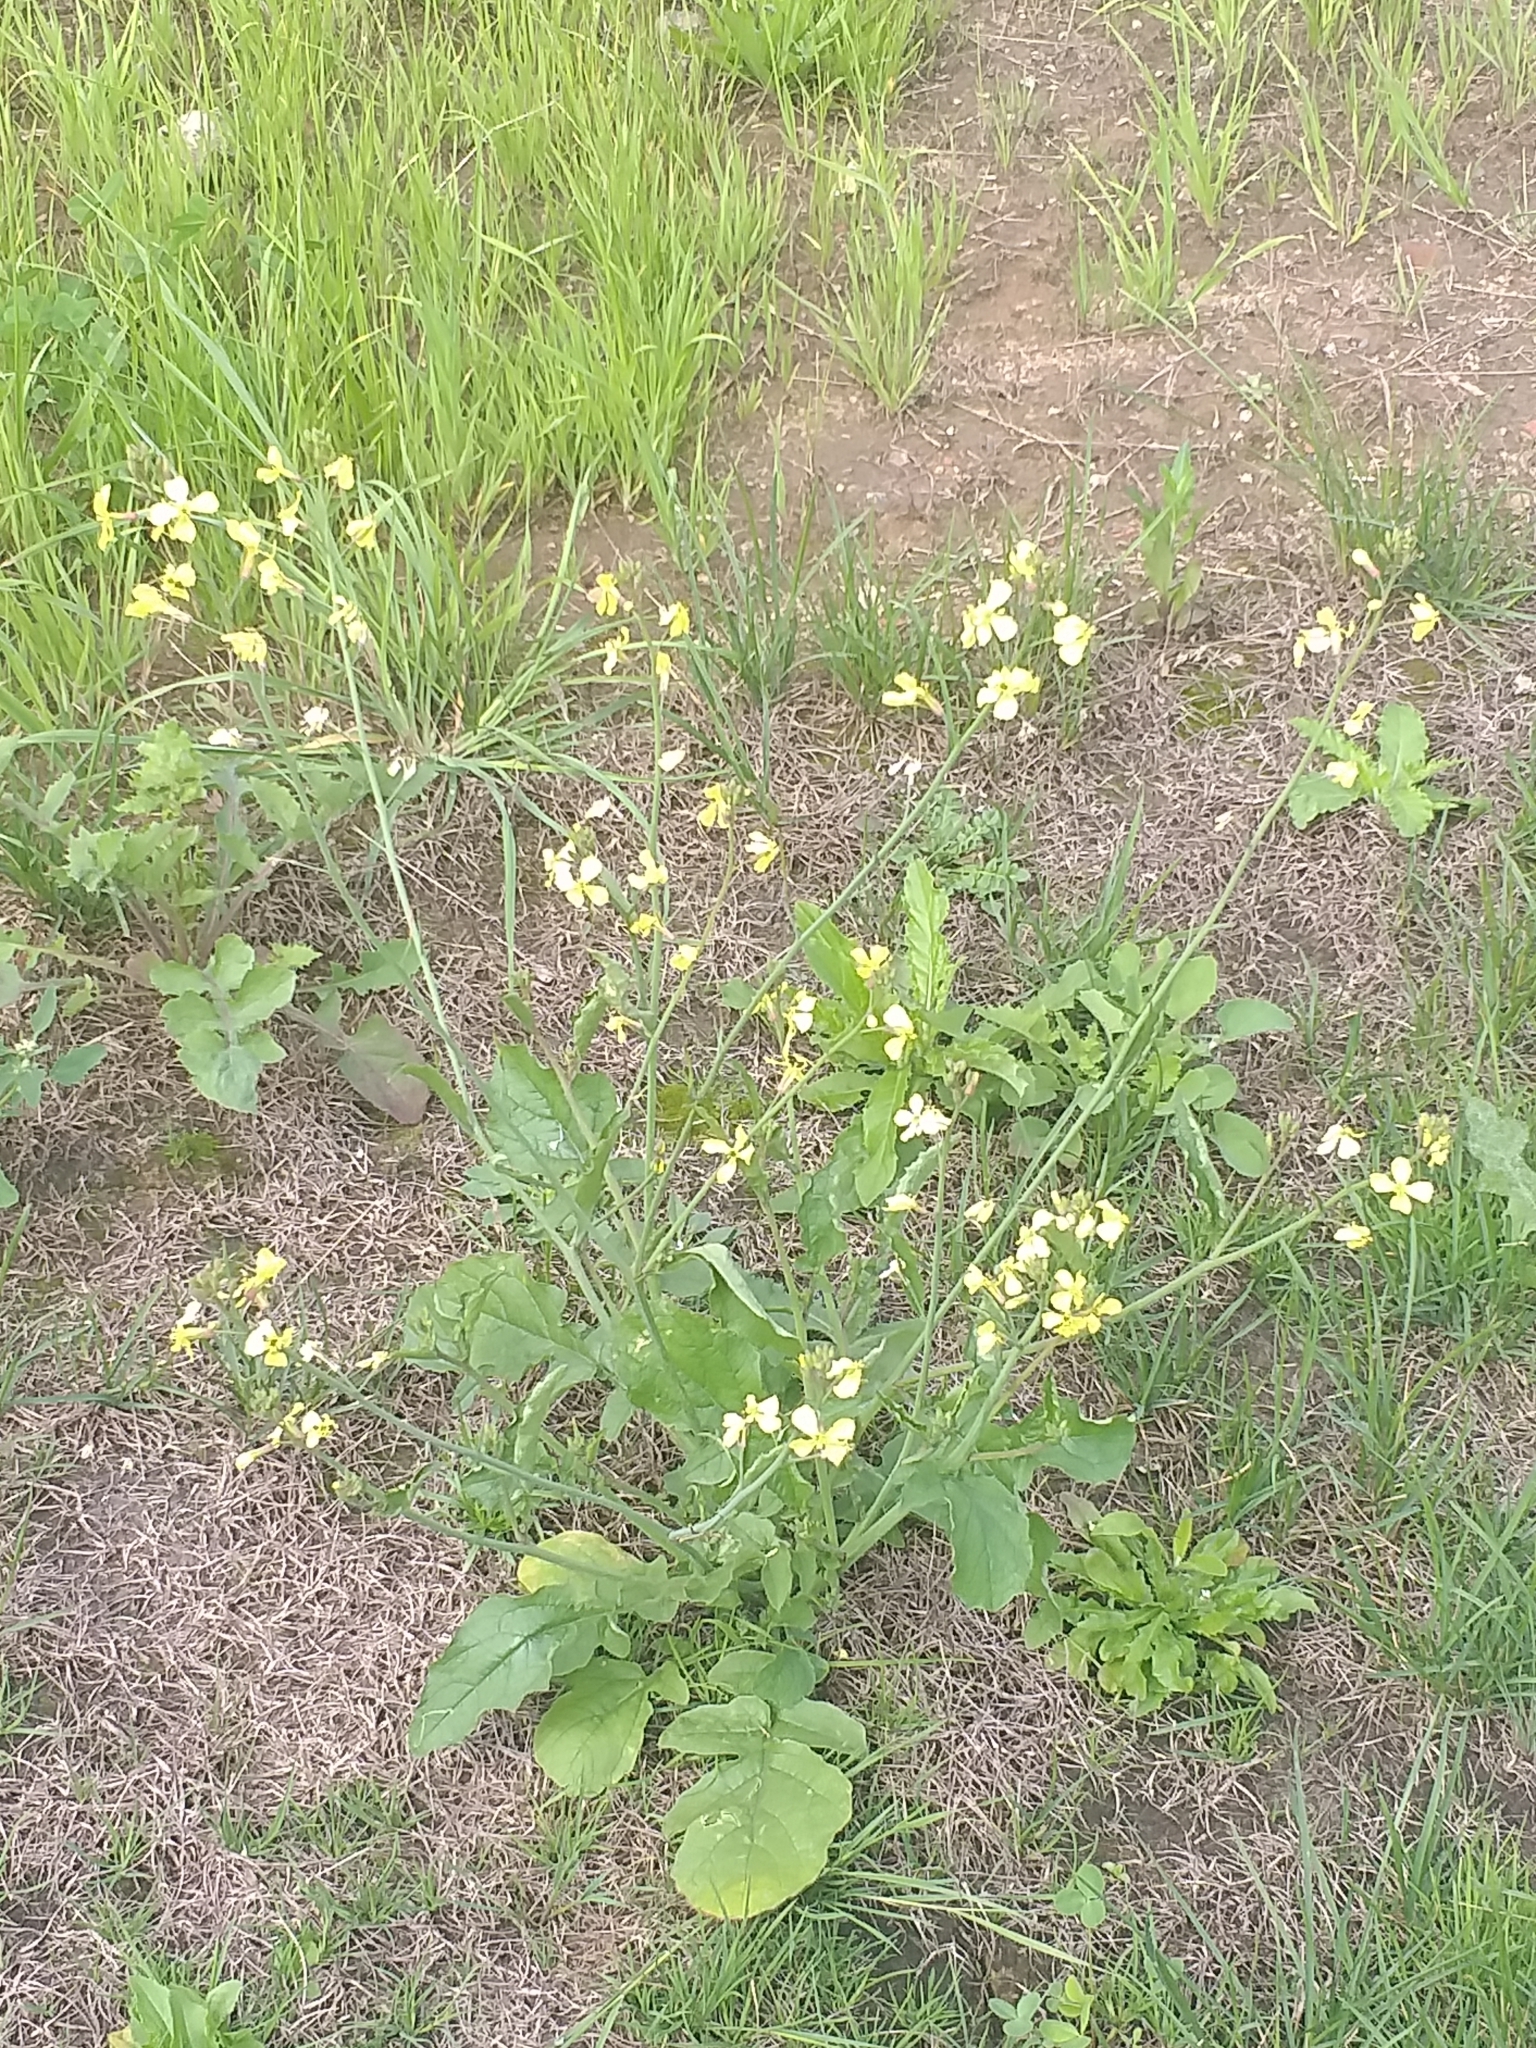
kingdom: Plantae
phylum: Tracheophyta
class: Magnoliopsida
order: Brassicales
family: Brassicaceae
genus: Raphanus
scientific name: Raphanus raphanistrum
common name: Wild radish
